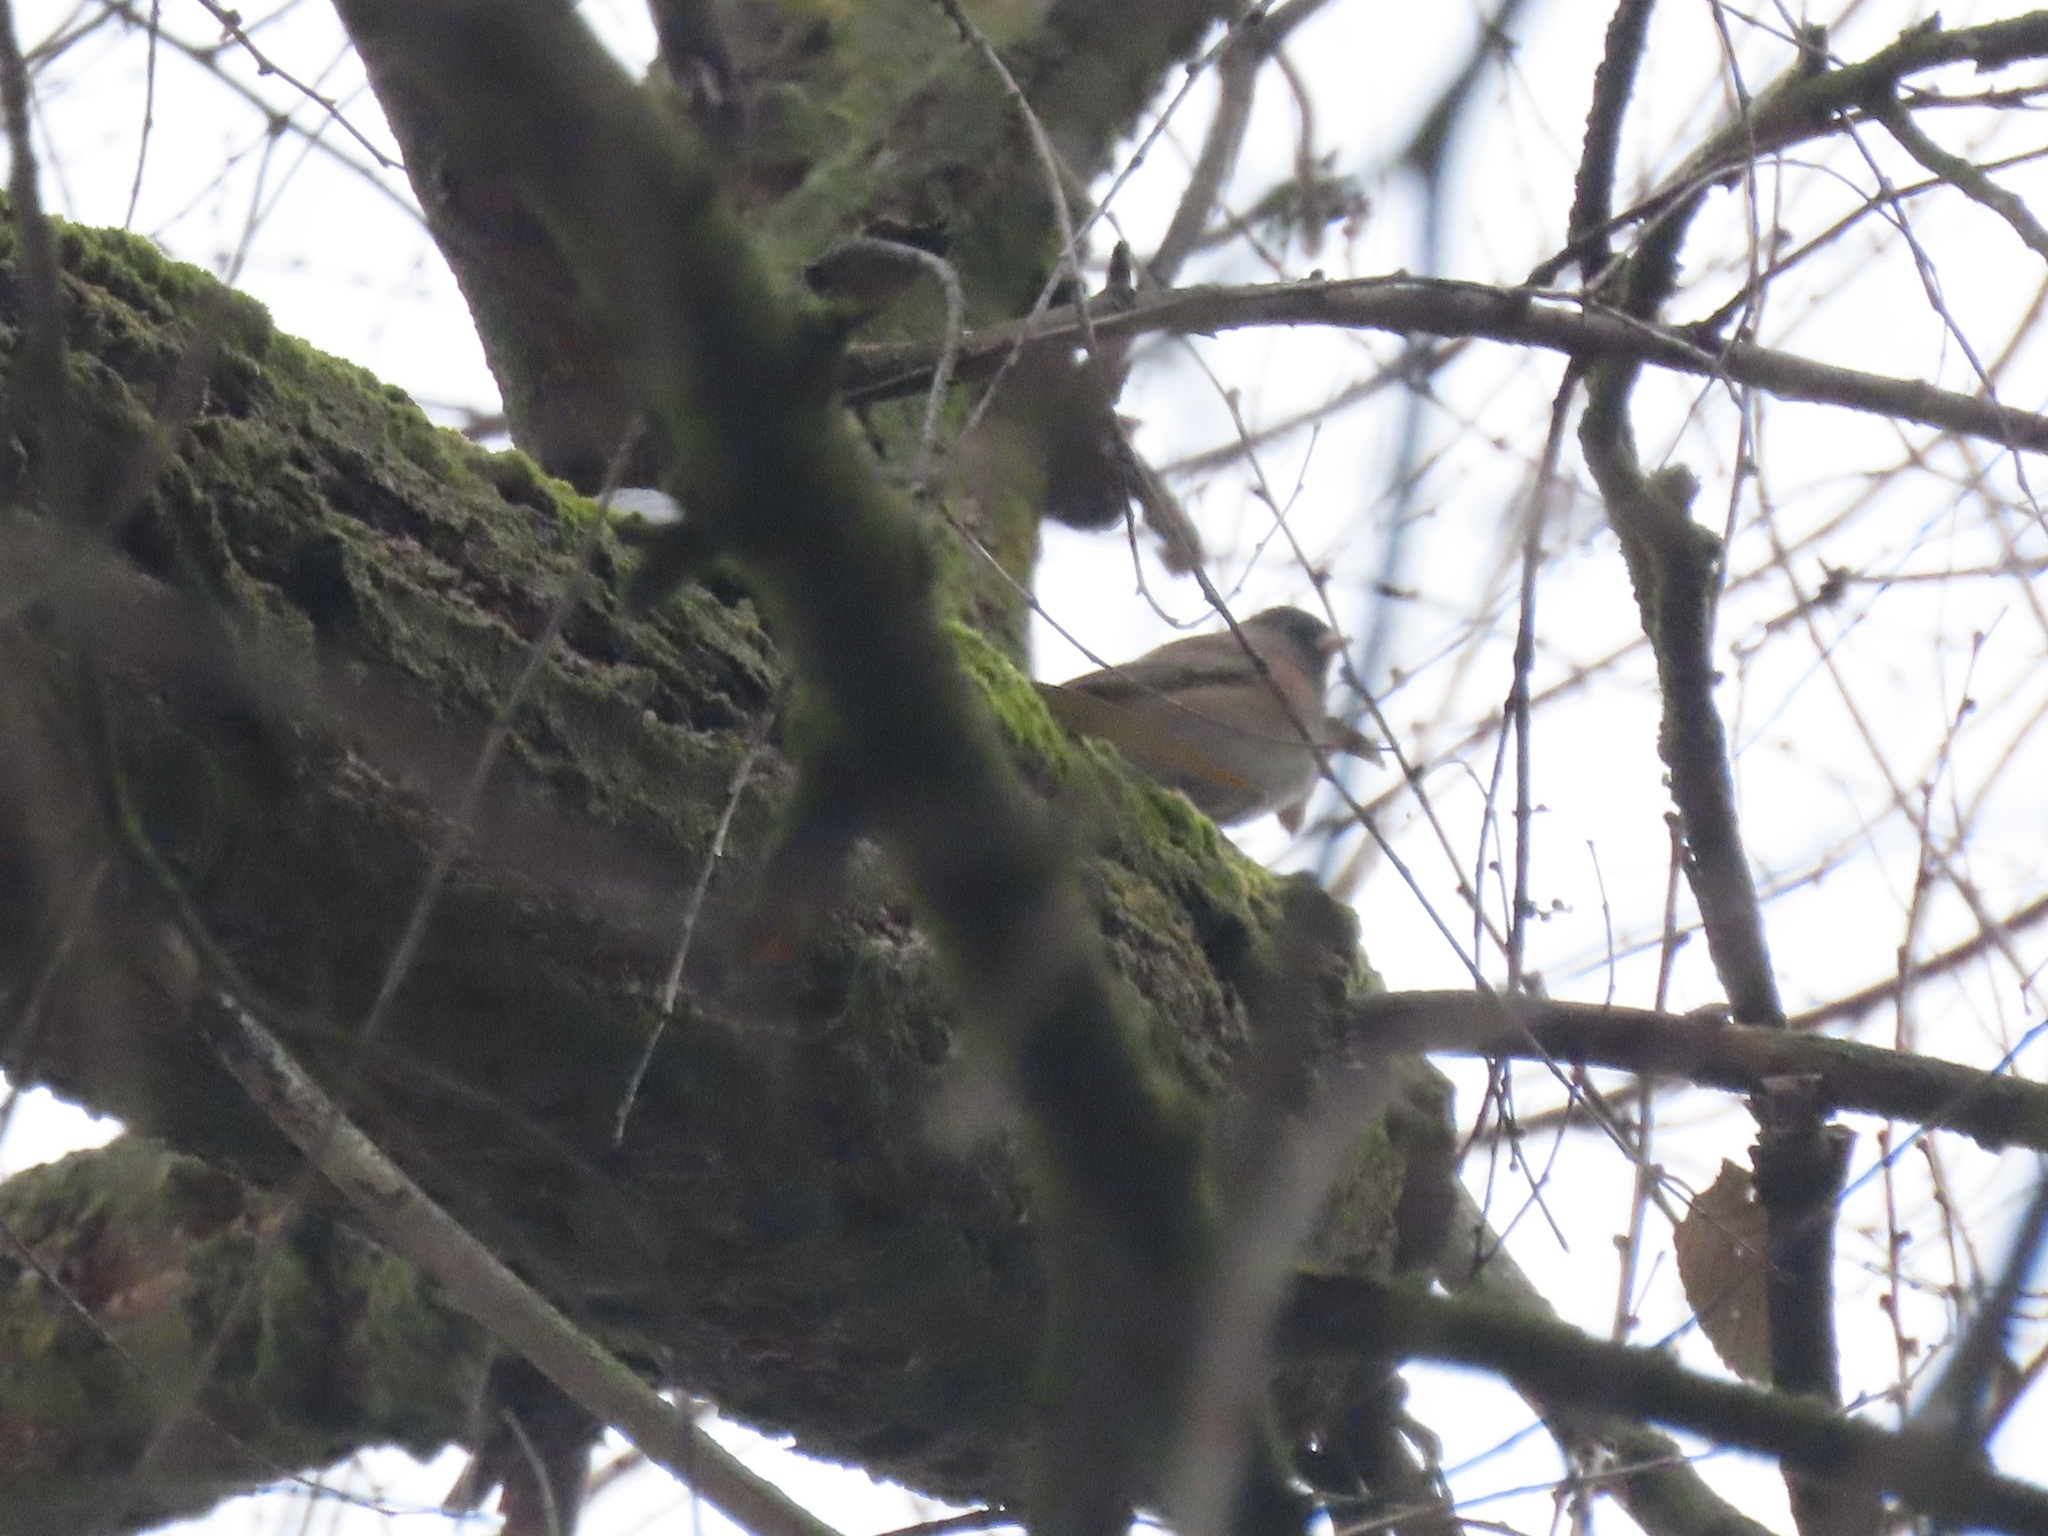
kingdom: Animalia
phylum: Chordata
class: Aves
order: Passeriformes
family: Passerellidae
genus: Junco
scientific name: Junco hyemalis
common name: Dark-eyed junco
